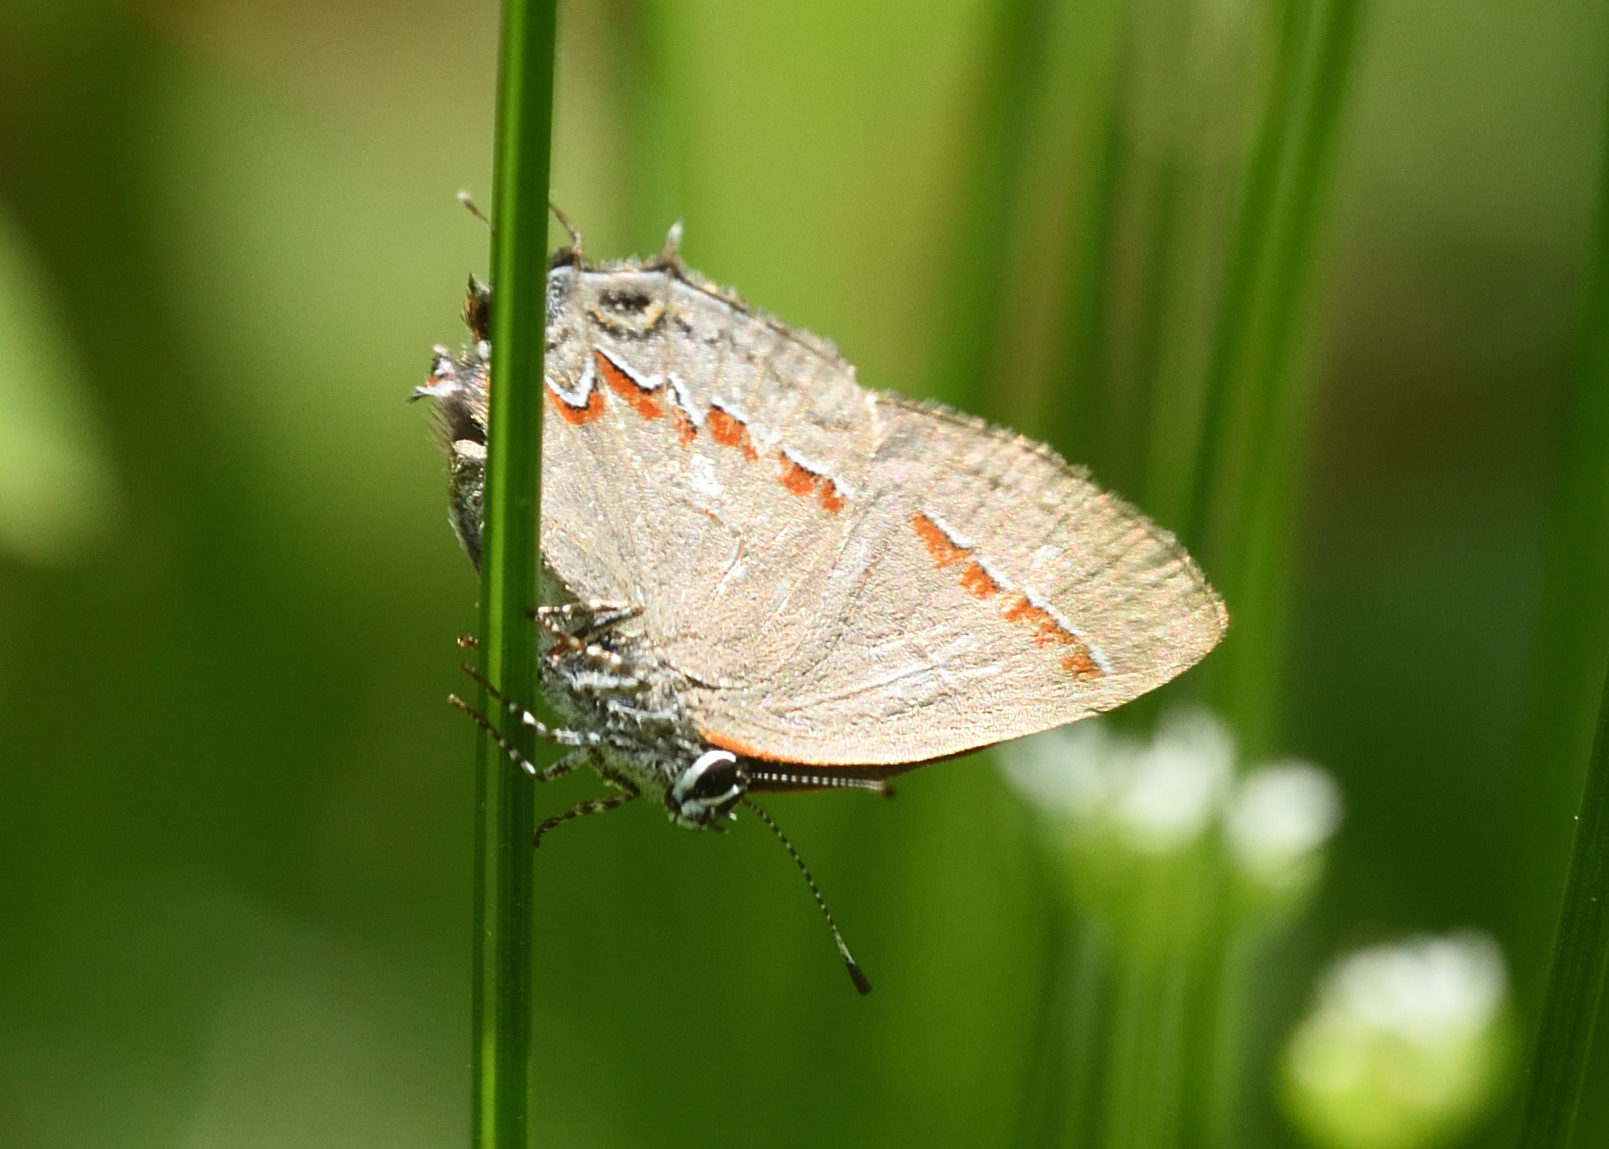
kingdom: Animalia
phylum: Arthropoda
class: Insecta
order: Lepidoptera
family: Lycaenidae
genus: Calycopis
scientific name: Calycopis cecrops
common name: Red-banded hairstreak
